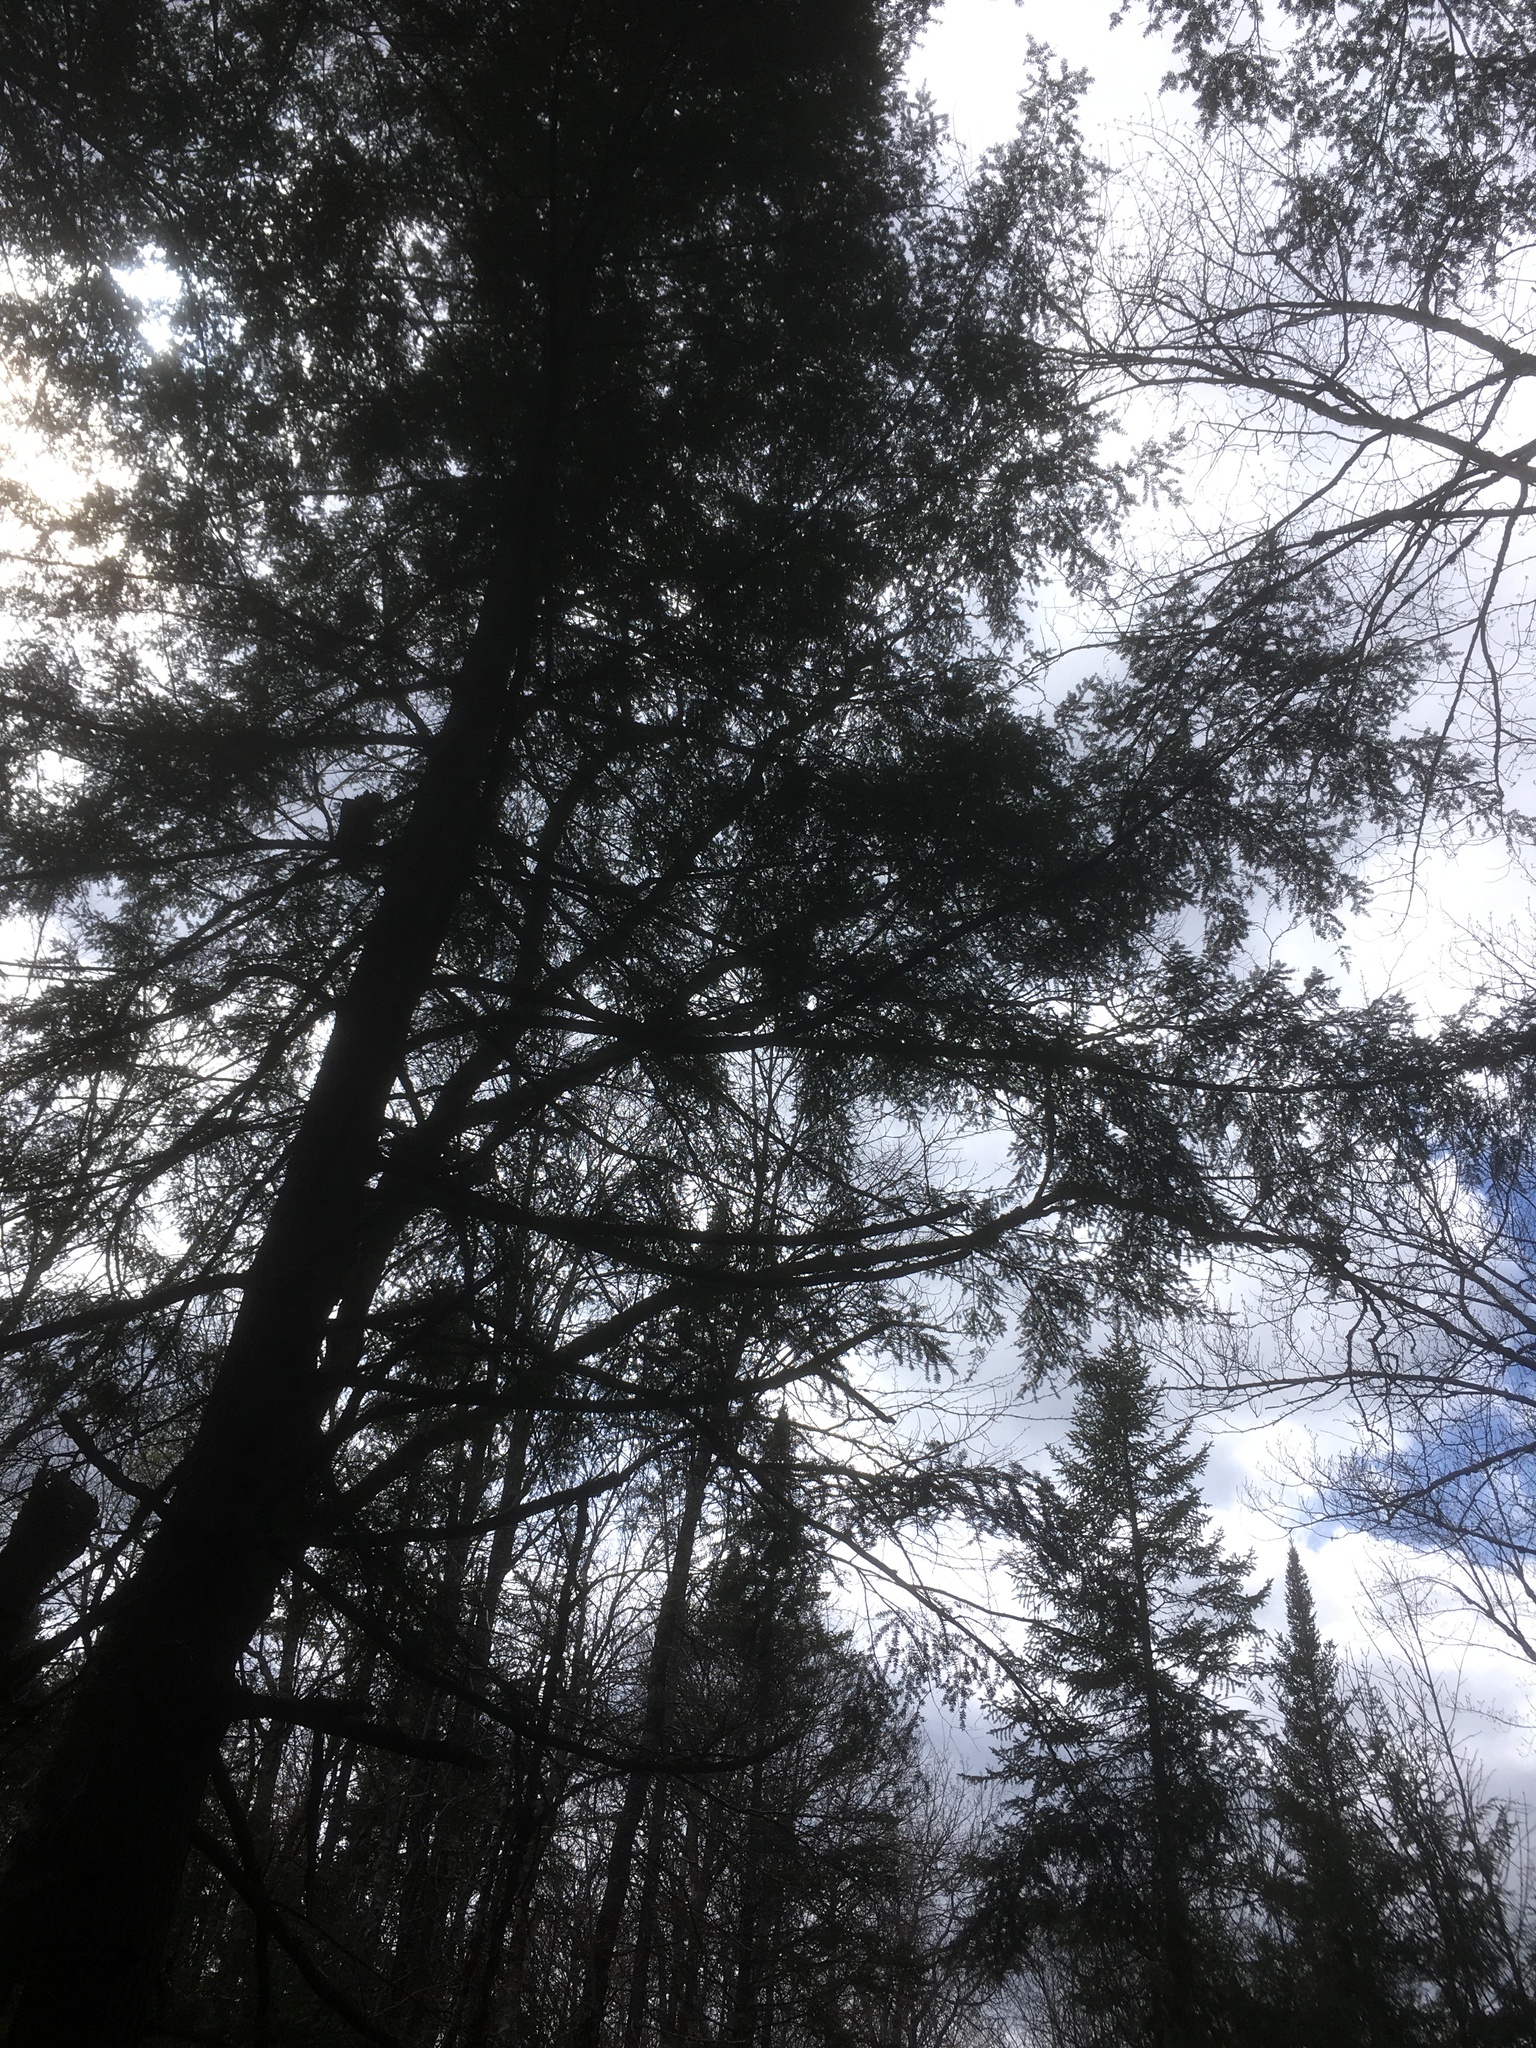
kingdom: Plantae
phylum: Tracheophyta
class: Pinopsida
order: Pinales
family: Pinaceae
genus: Tsuga
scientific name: Tsuga canadensis
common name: Eastern hemlock
